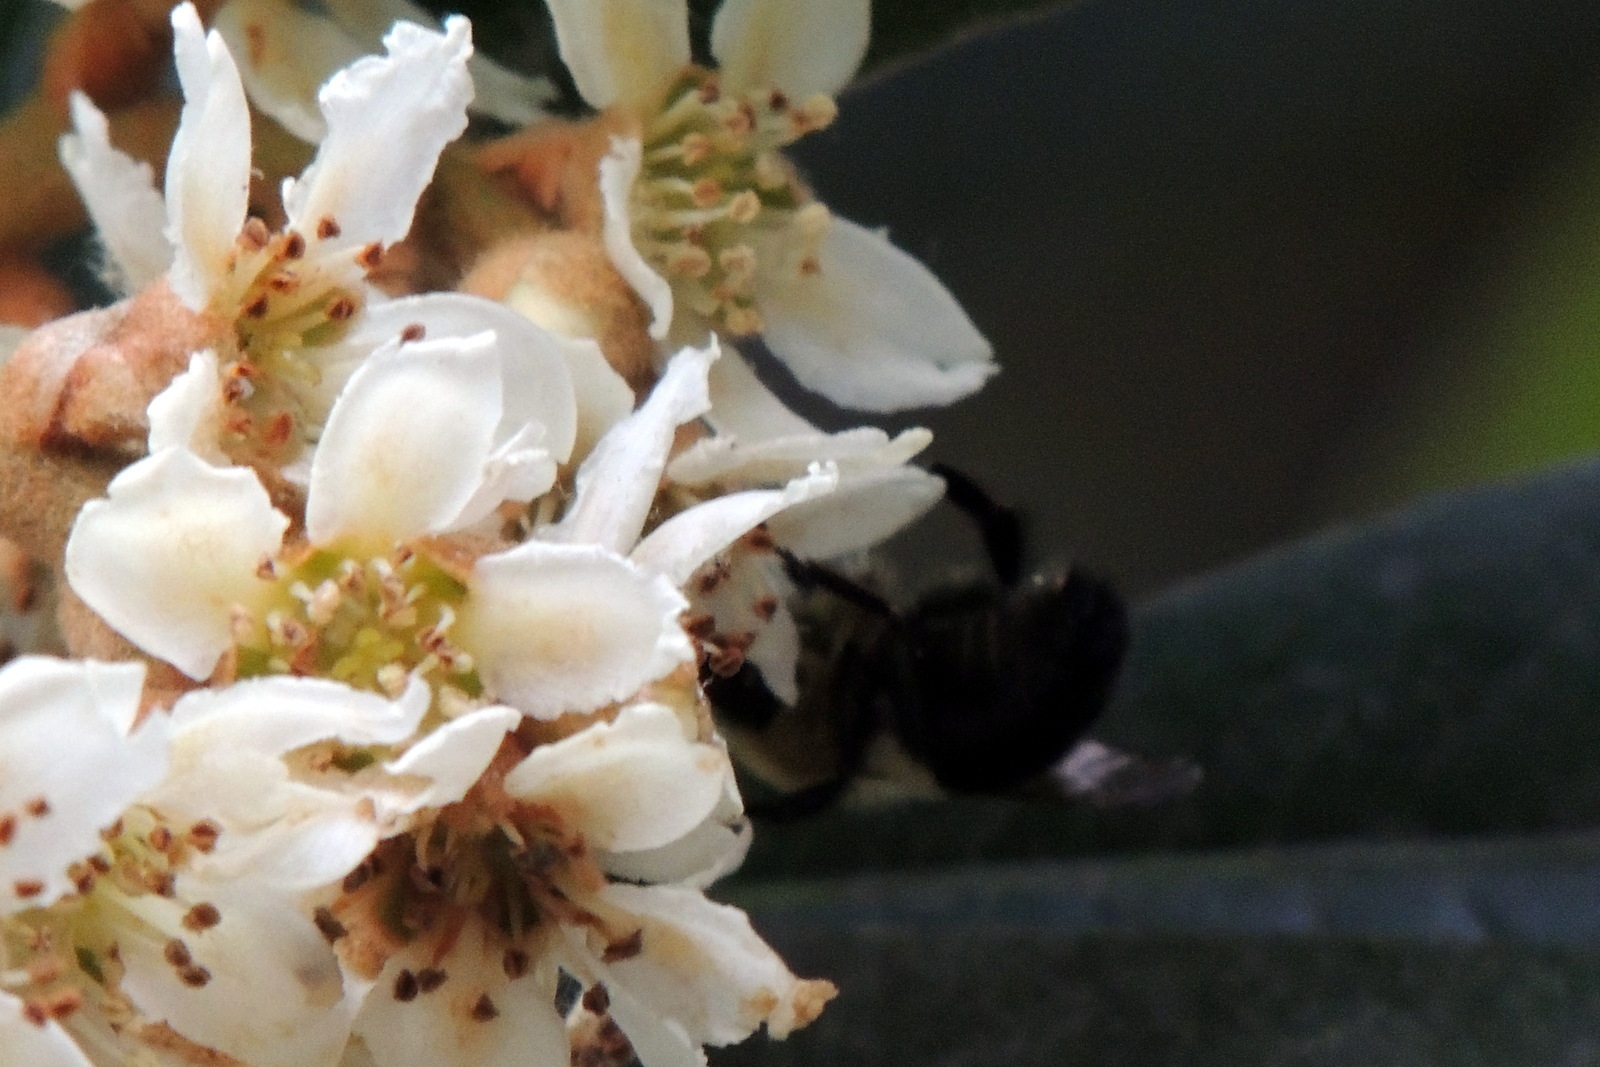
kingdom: Animalia
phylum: Arthropoda
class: Insecta
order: Hymenoptera
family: Apidae
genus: Bombus
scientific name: Bombus impatiens
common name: Common eastern bumble bee
